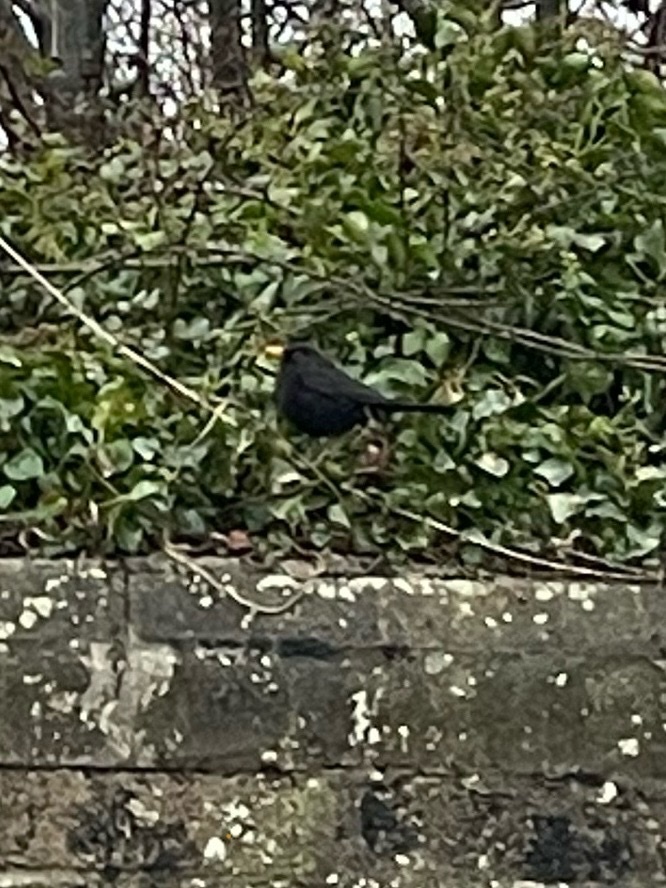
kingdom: Animalia
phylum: Chordata
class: Aves
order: Passeriformes
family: Turdidae
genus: Turdus
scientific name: Turdus merula
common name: Common blackbird
